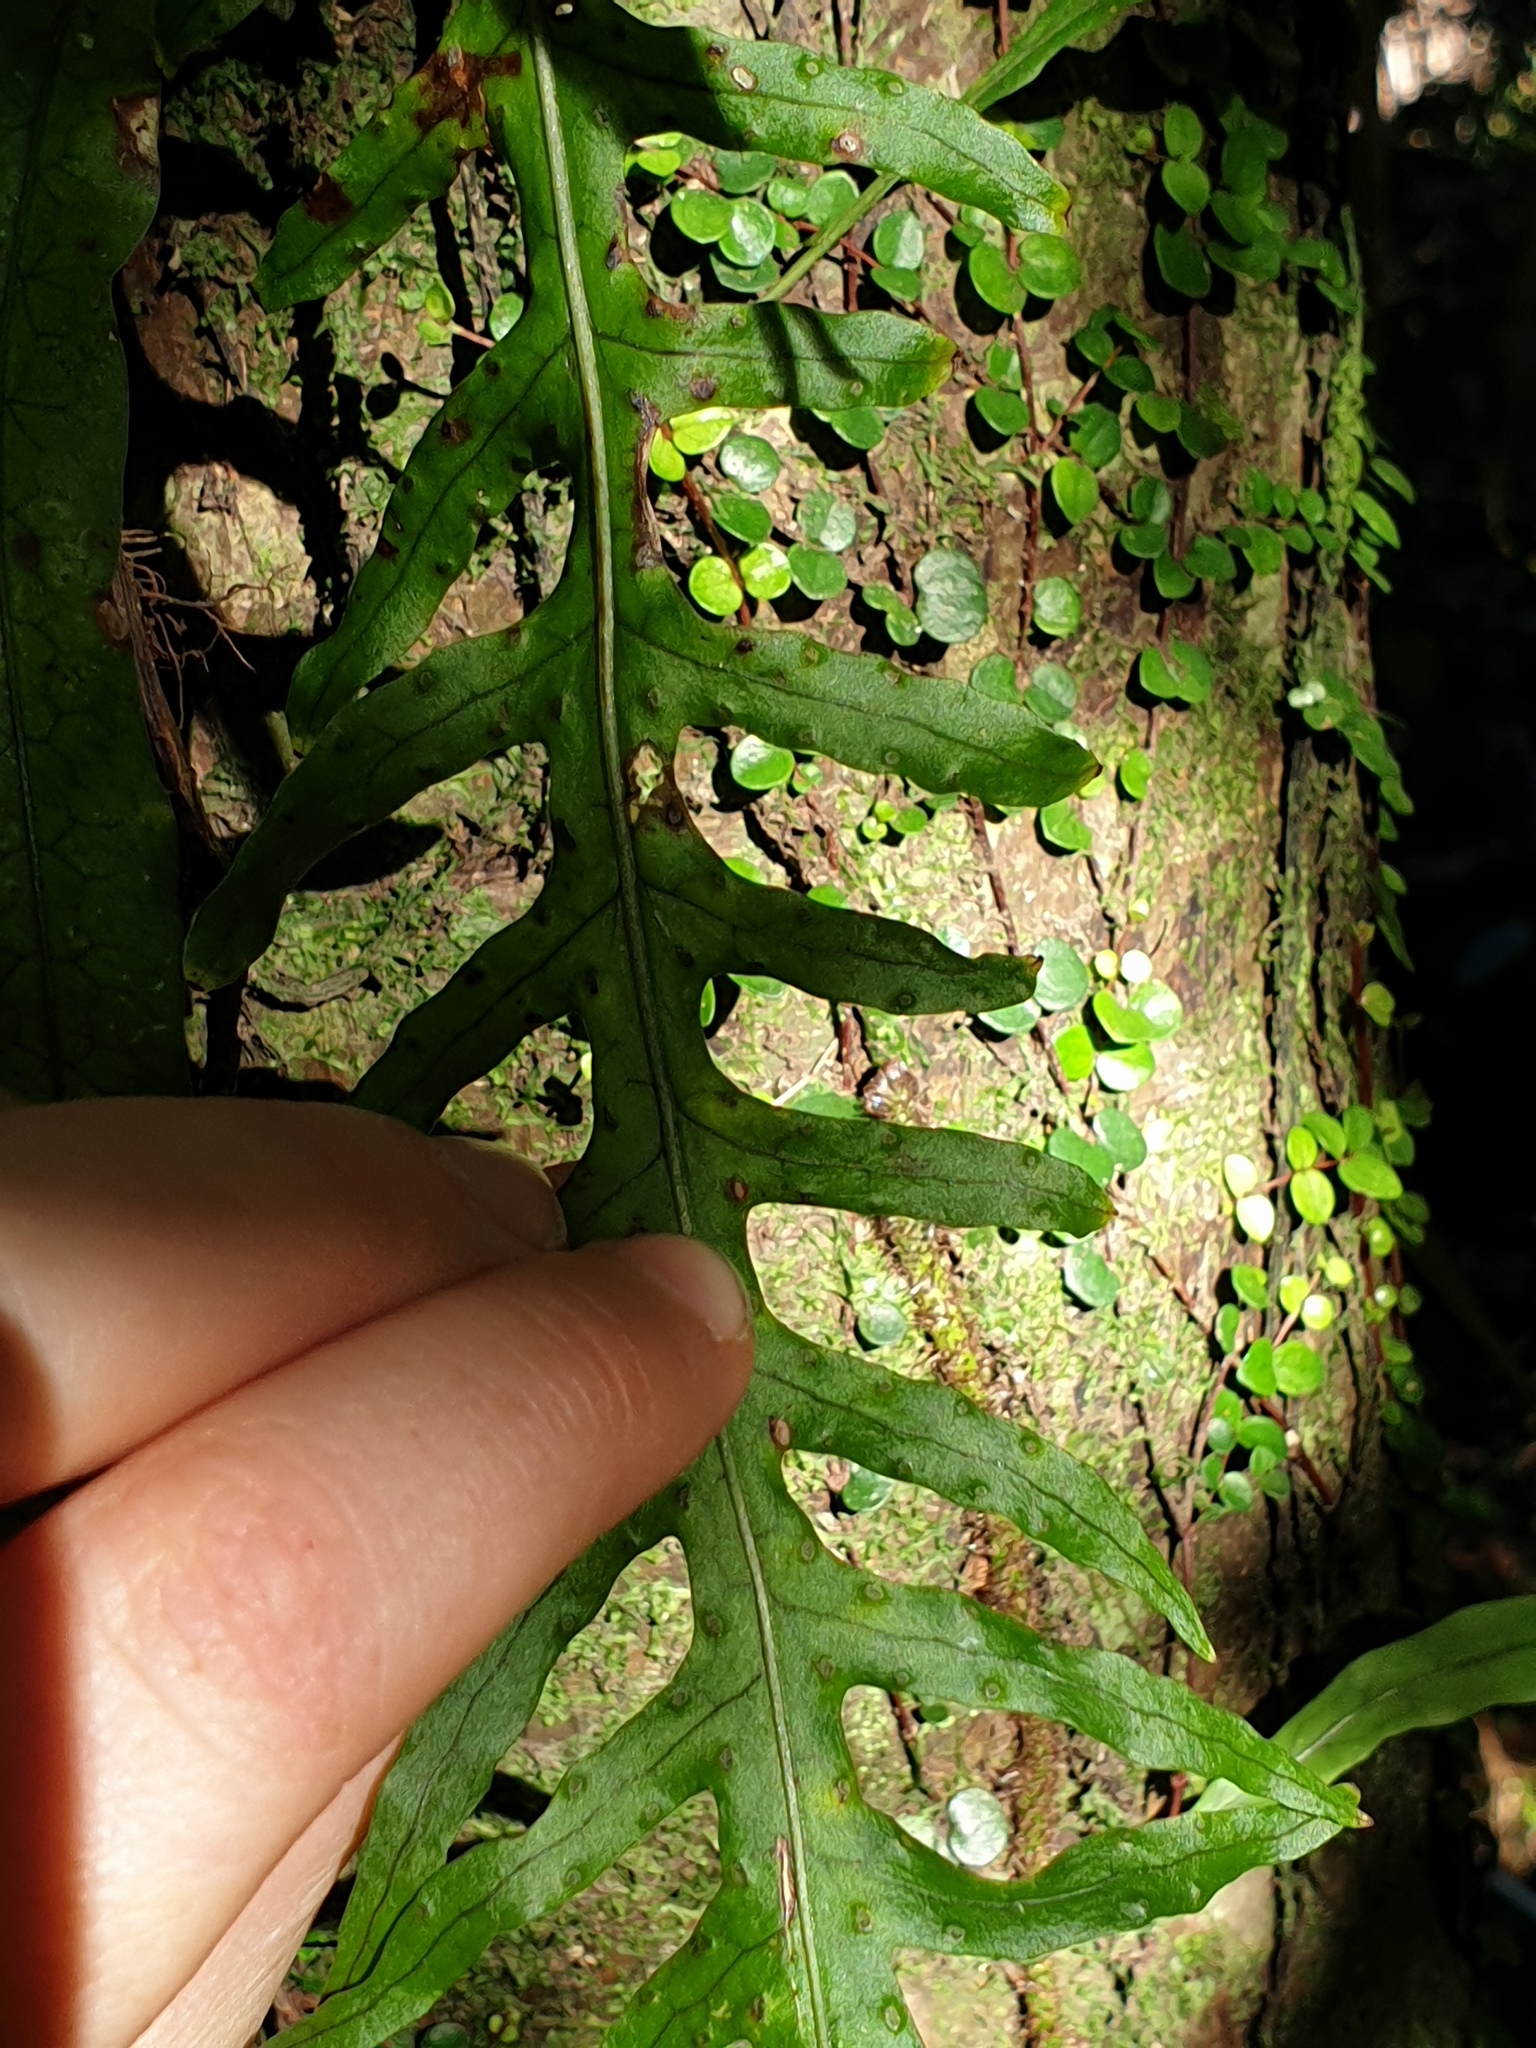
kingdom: Plantae
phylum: Tracheophyta
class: Polypodiopsida
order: Polypodiales
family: Polypodiaceae
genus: Lecanopteris
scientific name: Lecanopteris scandens
